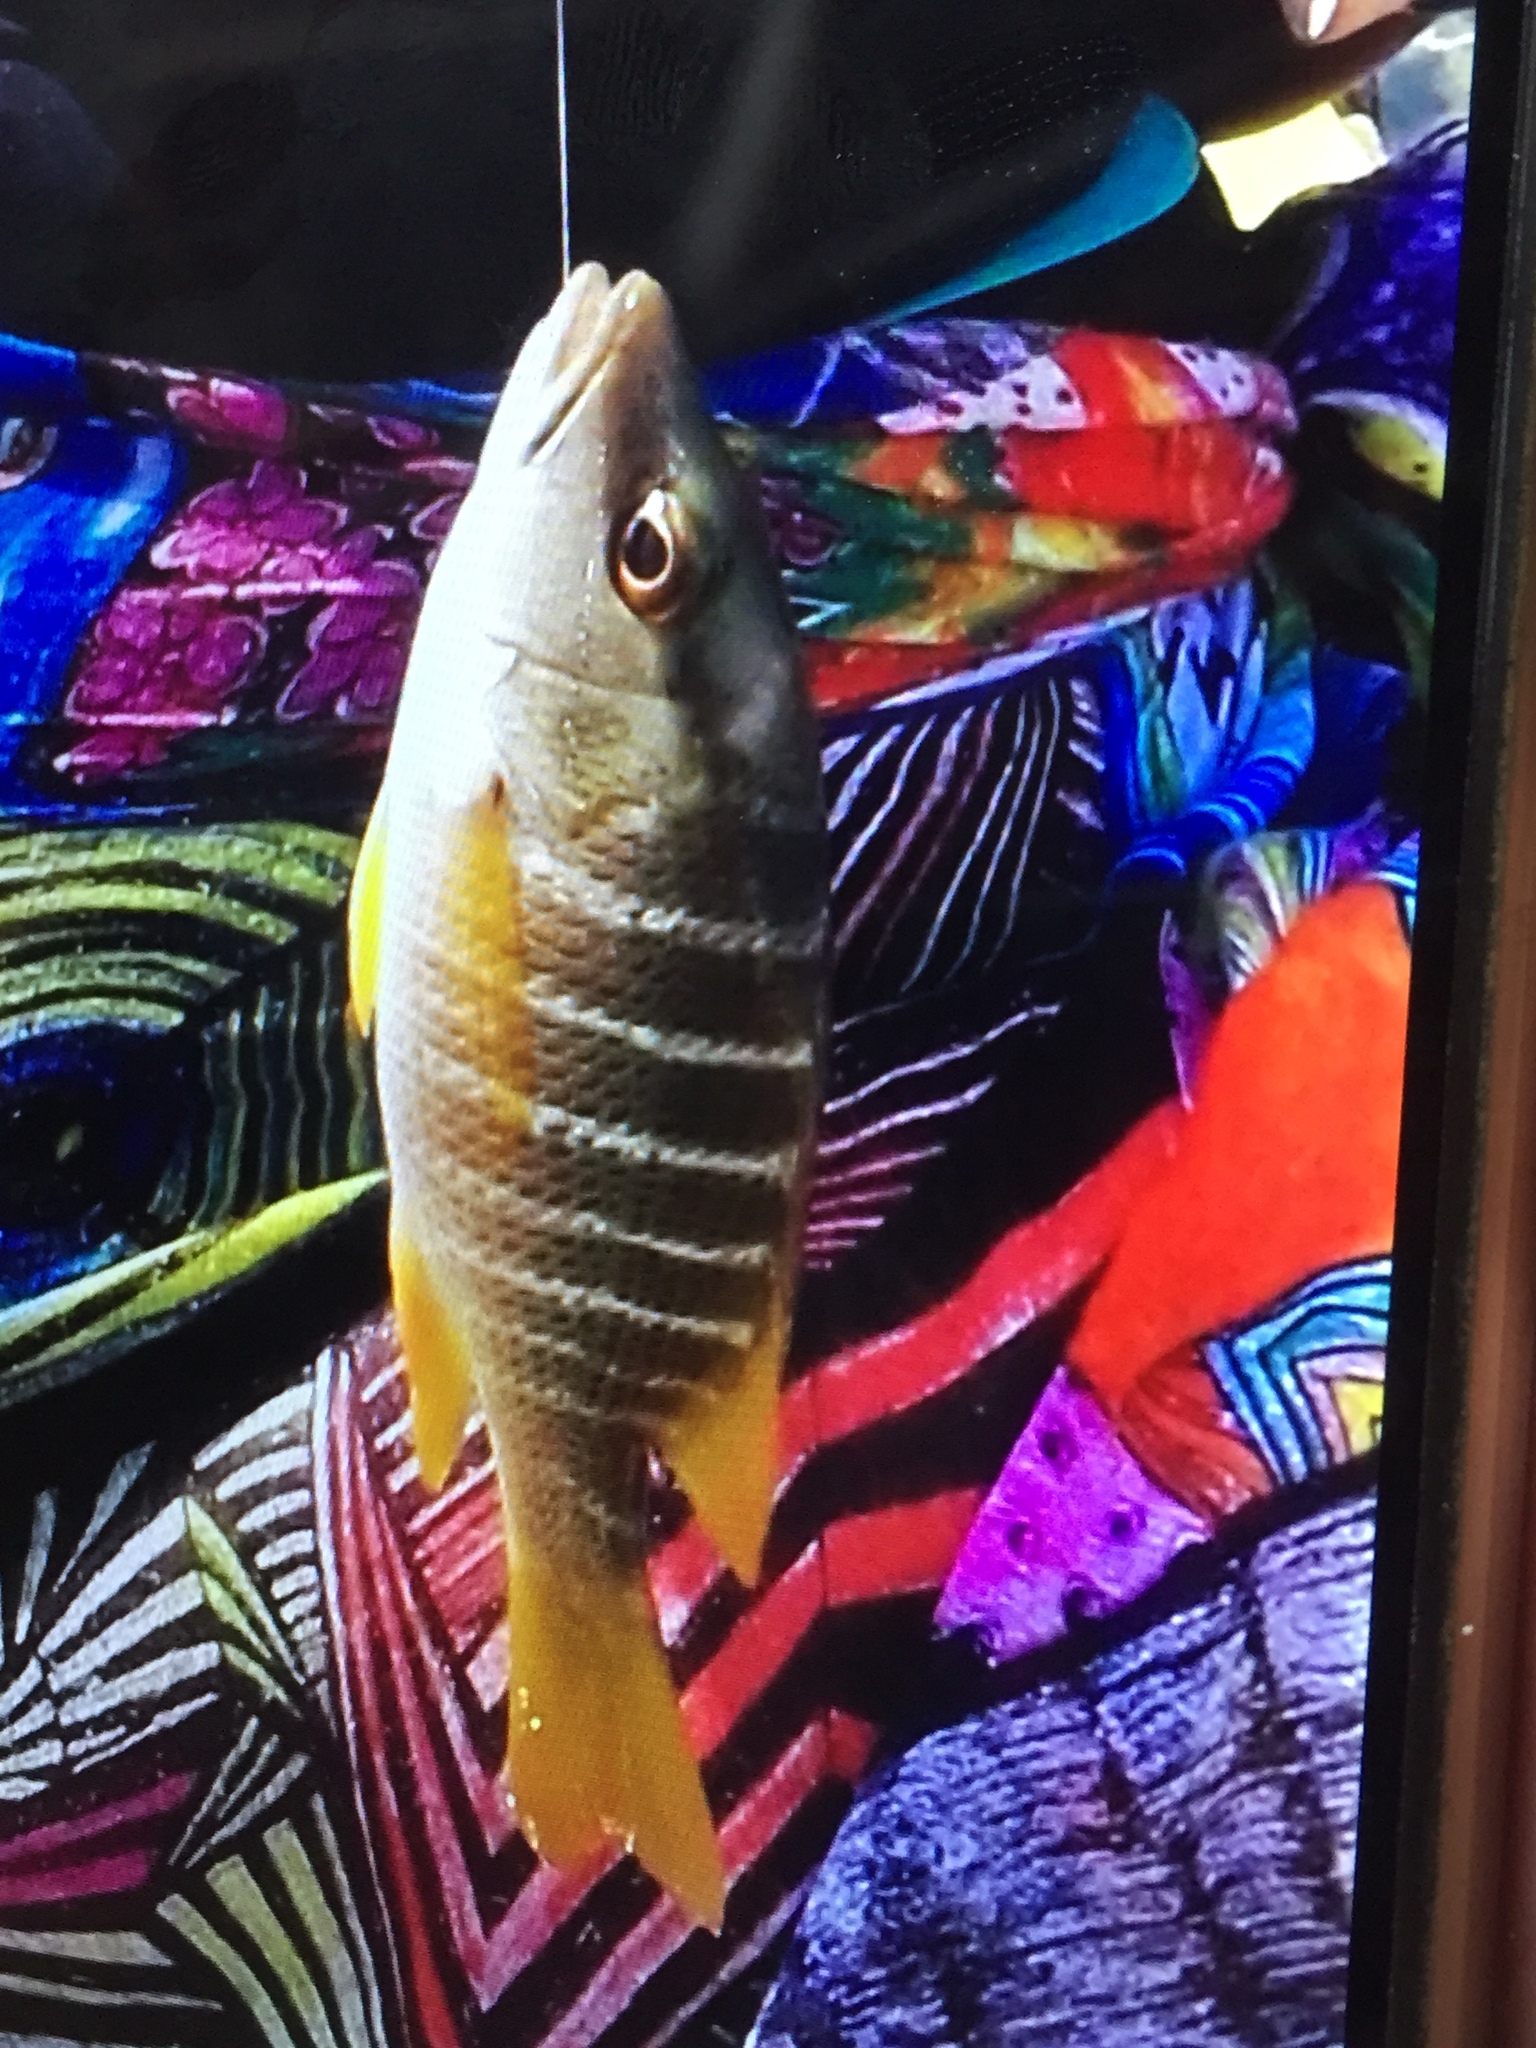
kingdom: Animalia
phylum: Chordata
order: Perciformes
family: Lutjanidae
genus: Lutjanus
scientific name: Lutjanus apodus
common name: Schoolmaster
